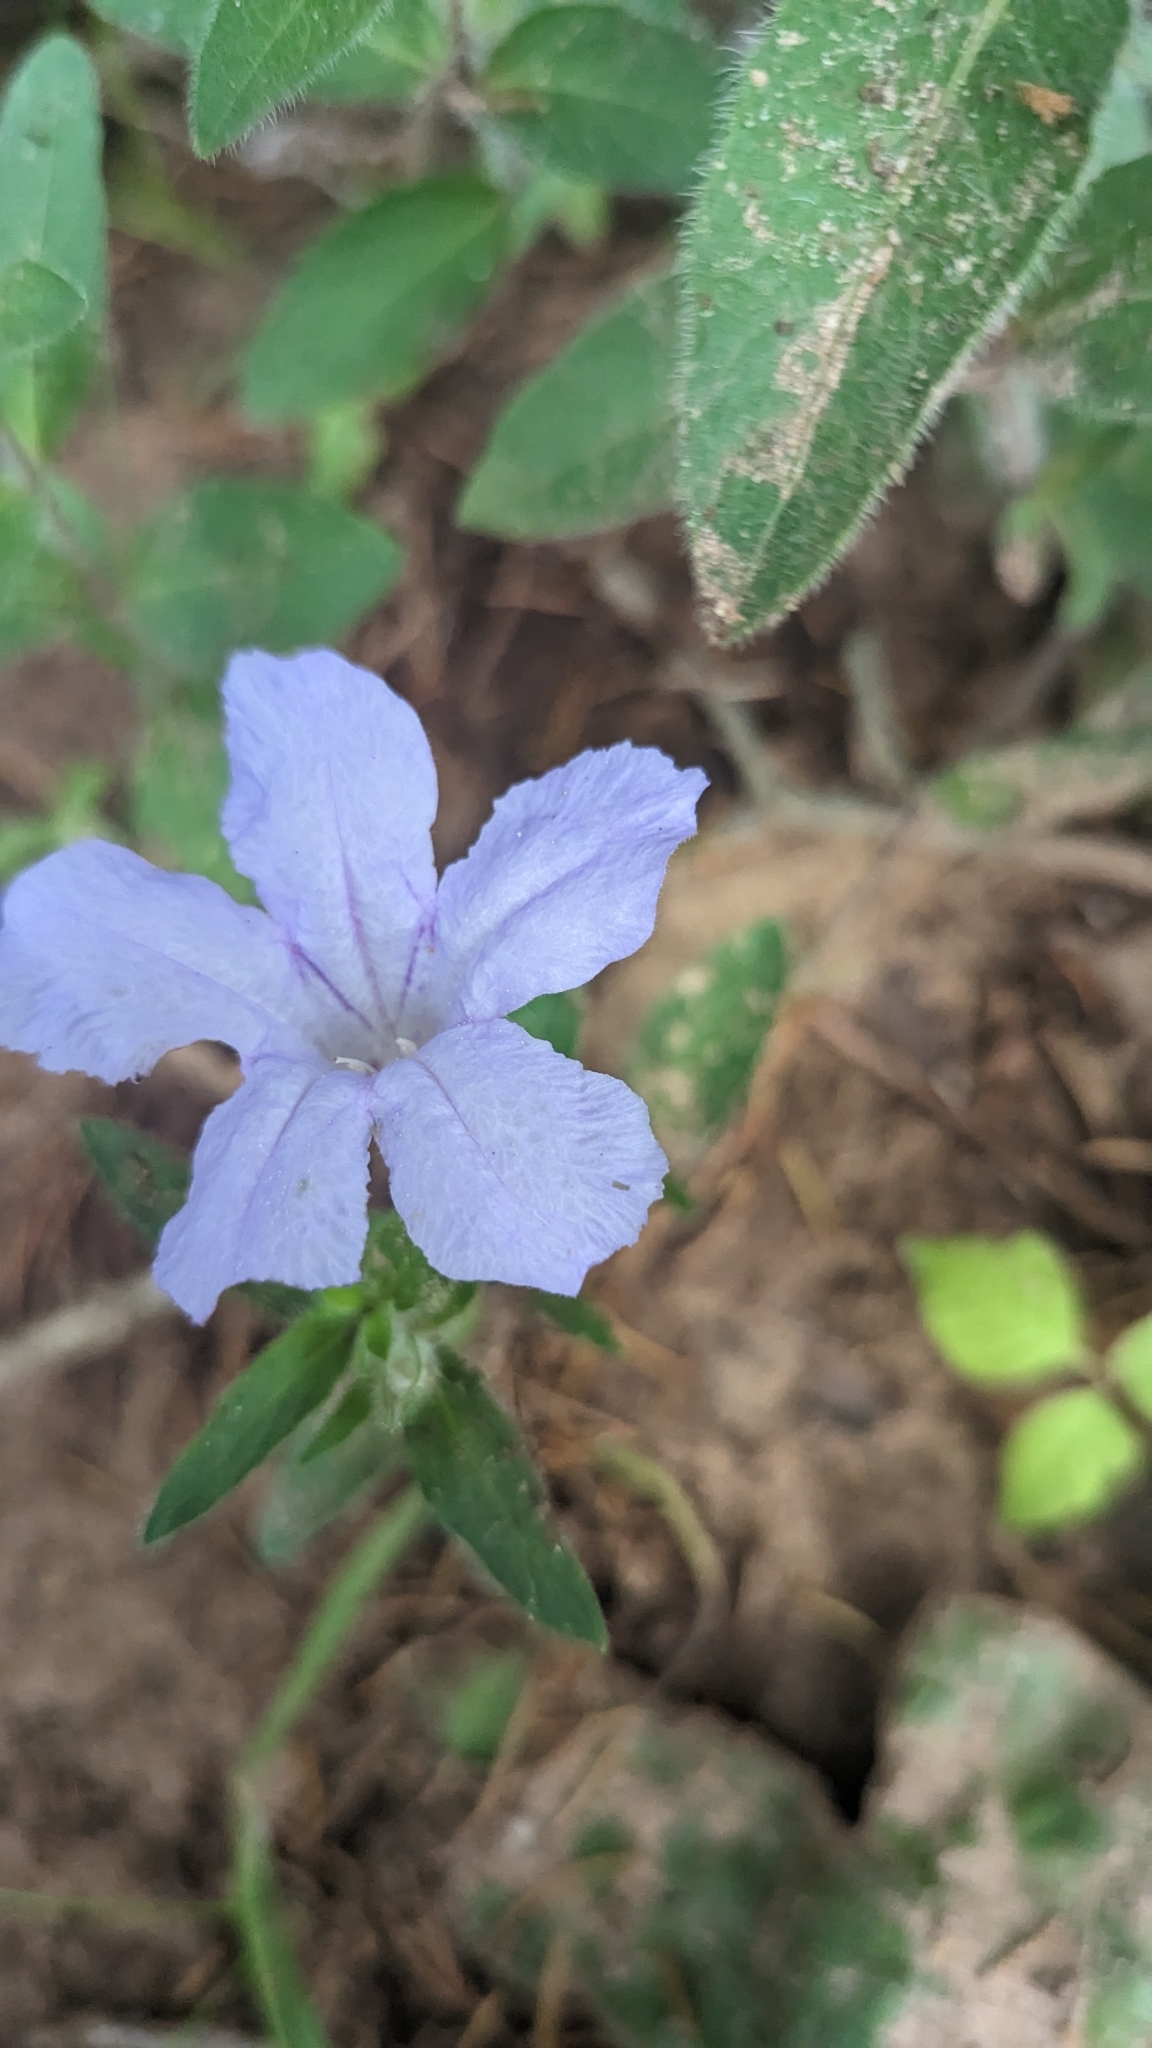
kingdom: Plantae
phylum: Tracheophyta
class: Magnoliopsida
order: Lamiales
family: Acanthaceae
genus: Ruellia
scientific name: Ruellia humilis
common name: Fringe-leaf ruellia
